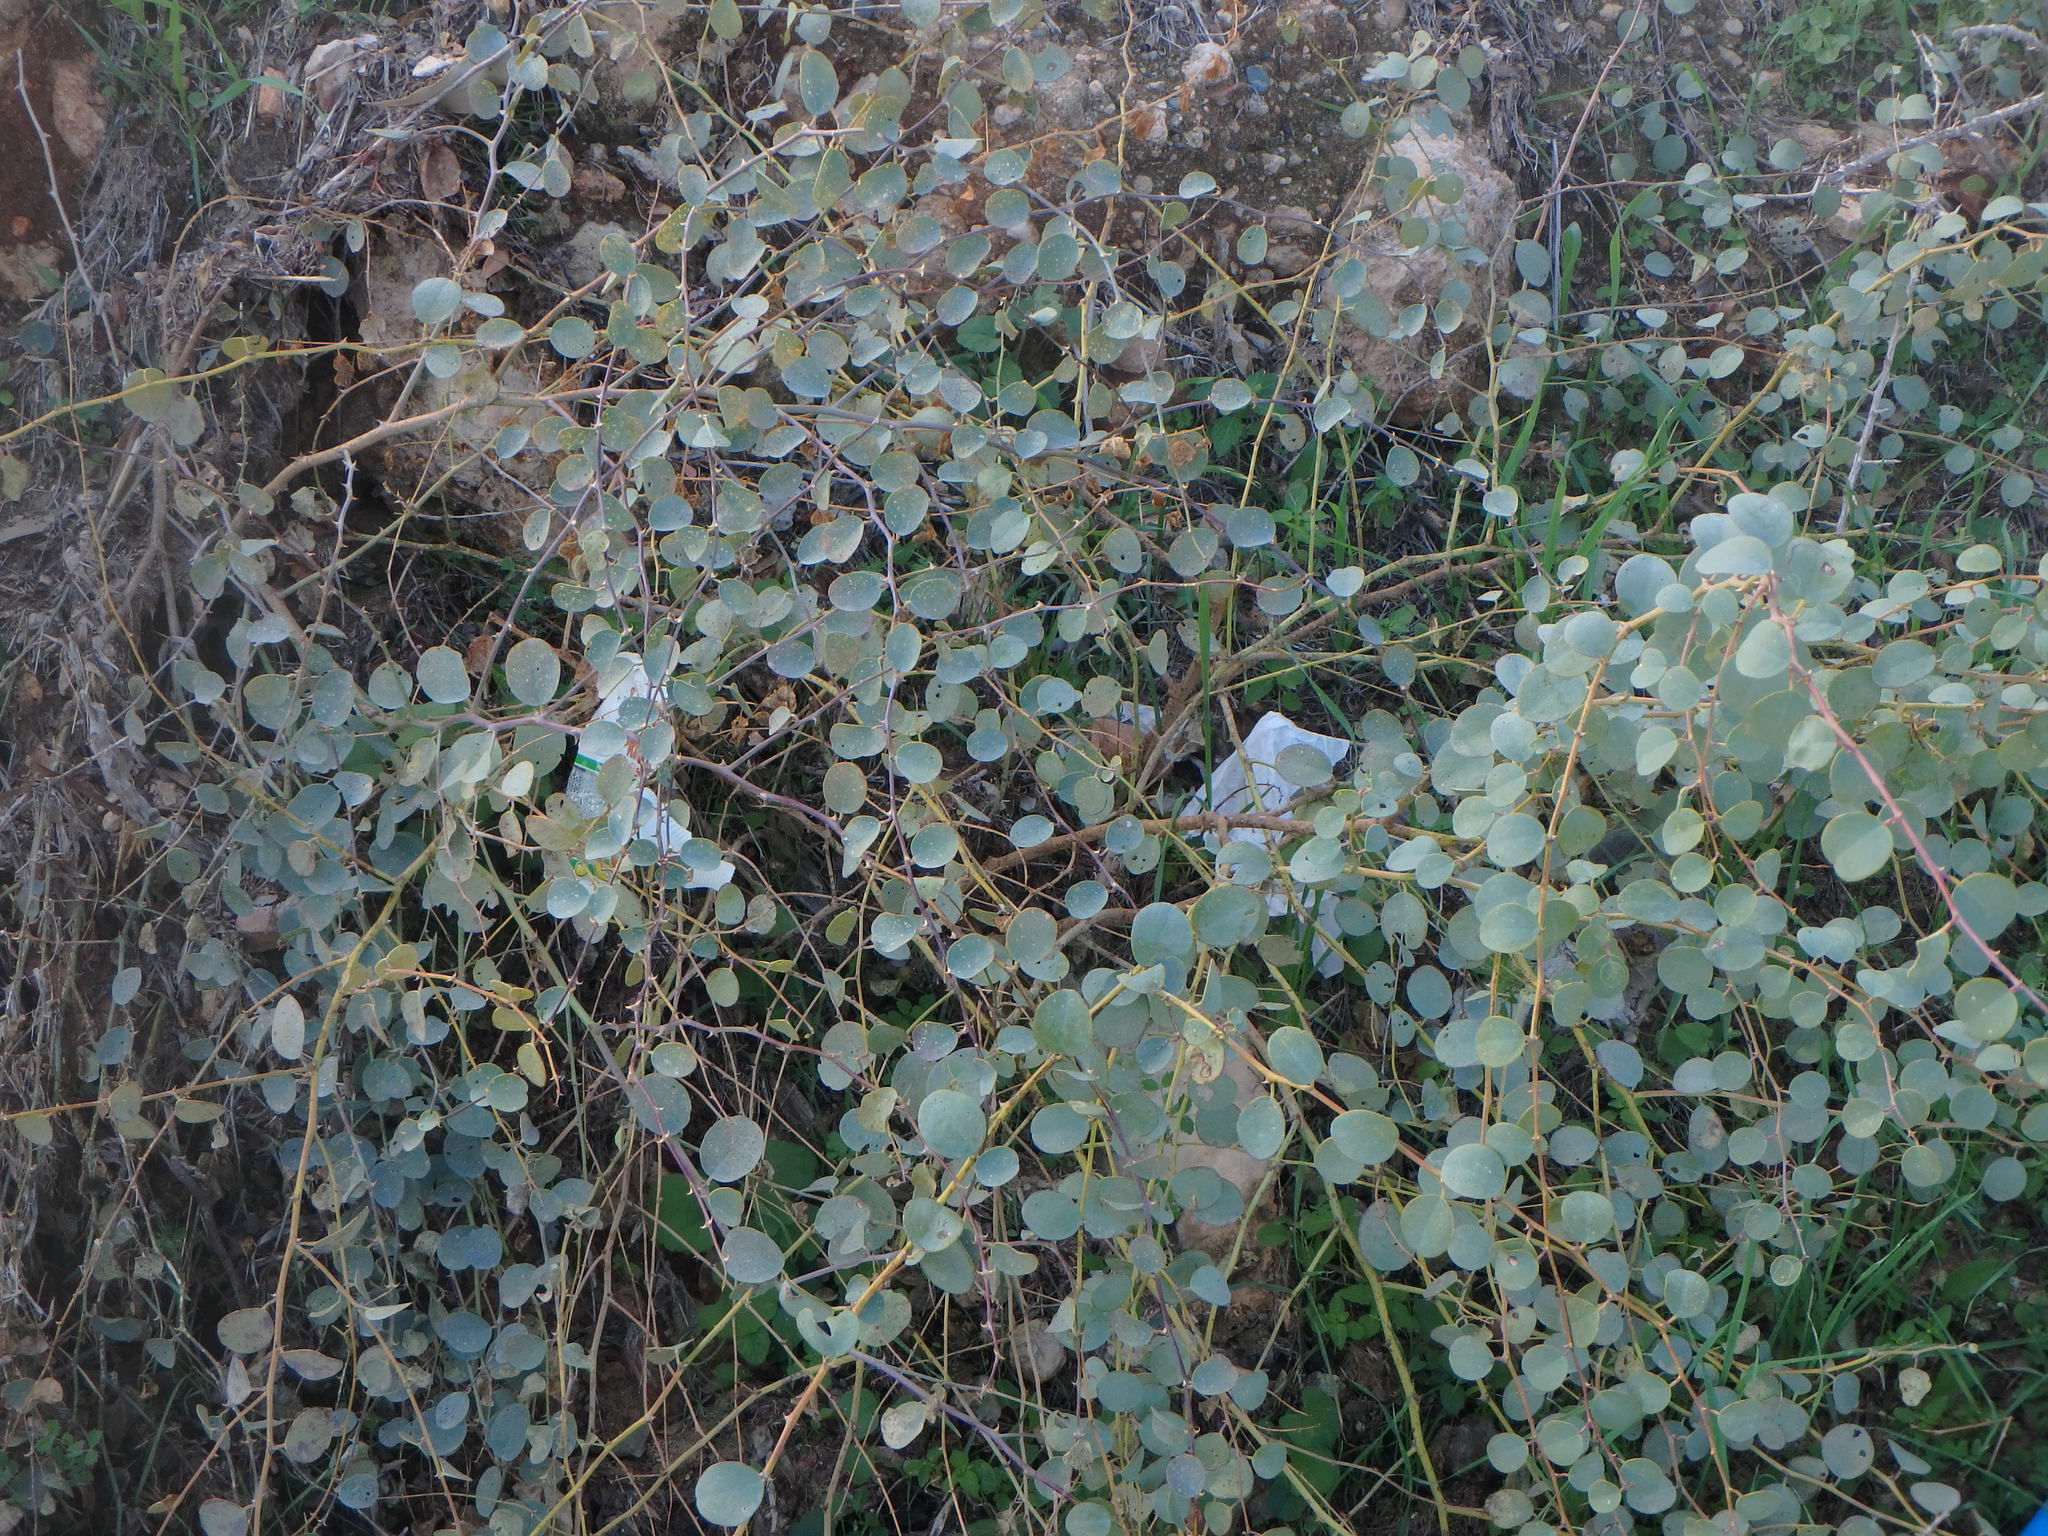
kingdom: Plantae
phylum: Tracheophyta
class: Magnoliopsida
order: Brassicales
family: Capparaceae
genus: Capparis
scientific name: Capparis spinosa
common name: Caper
